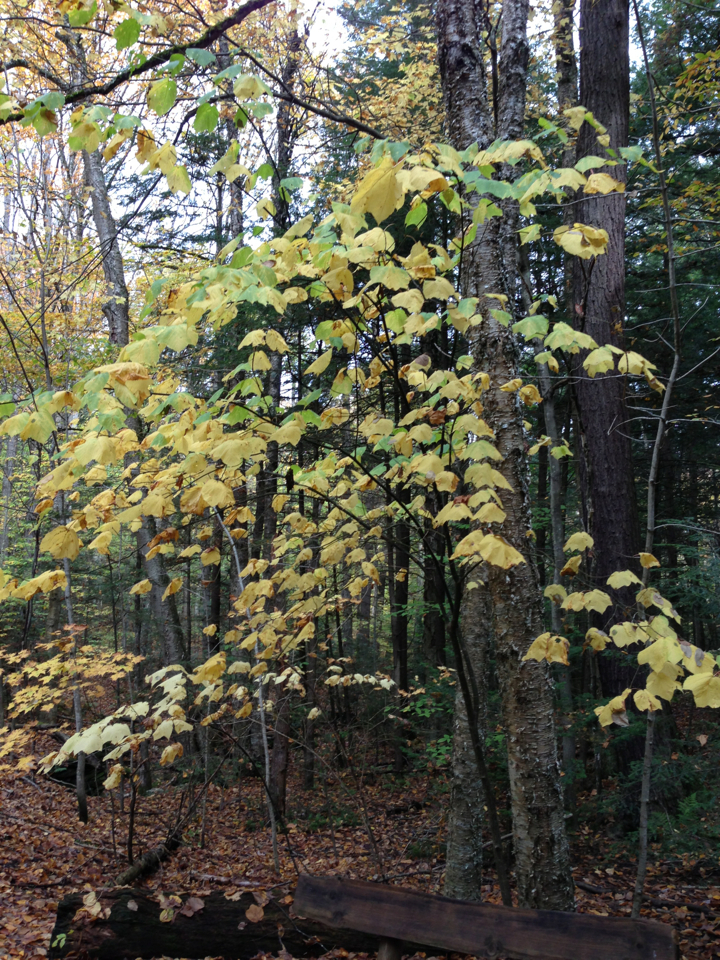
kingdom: Plantae
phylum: Tracheophyta
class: Magnoliopsida
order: Sapindales
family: Sapindaceae
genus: Acer
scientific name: Acer pensylvanicum
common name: Moosewood
